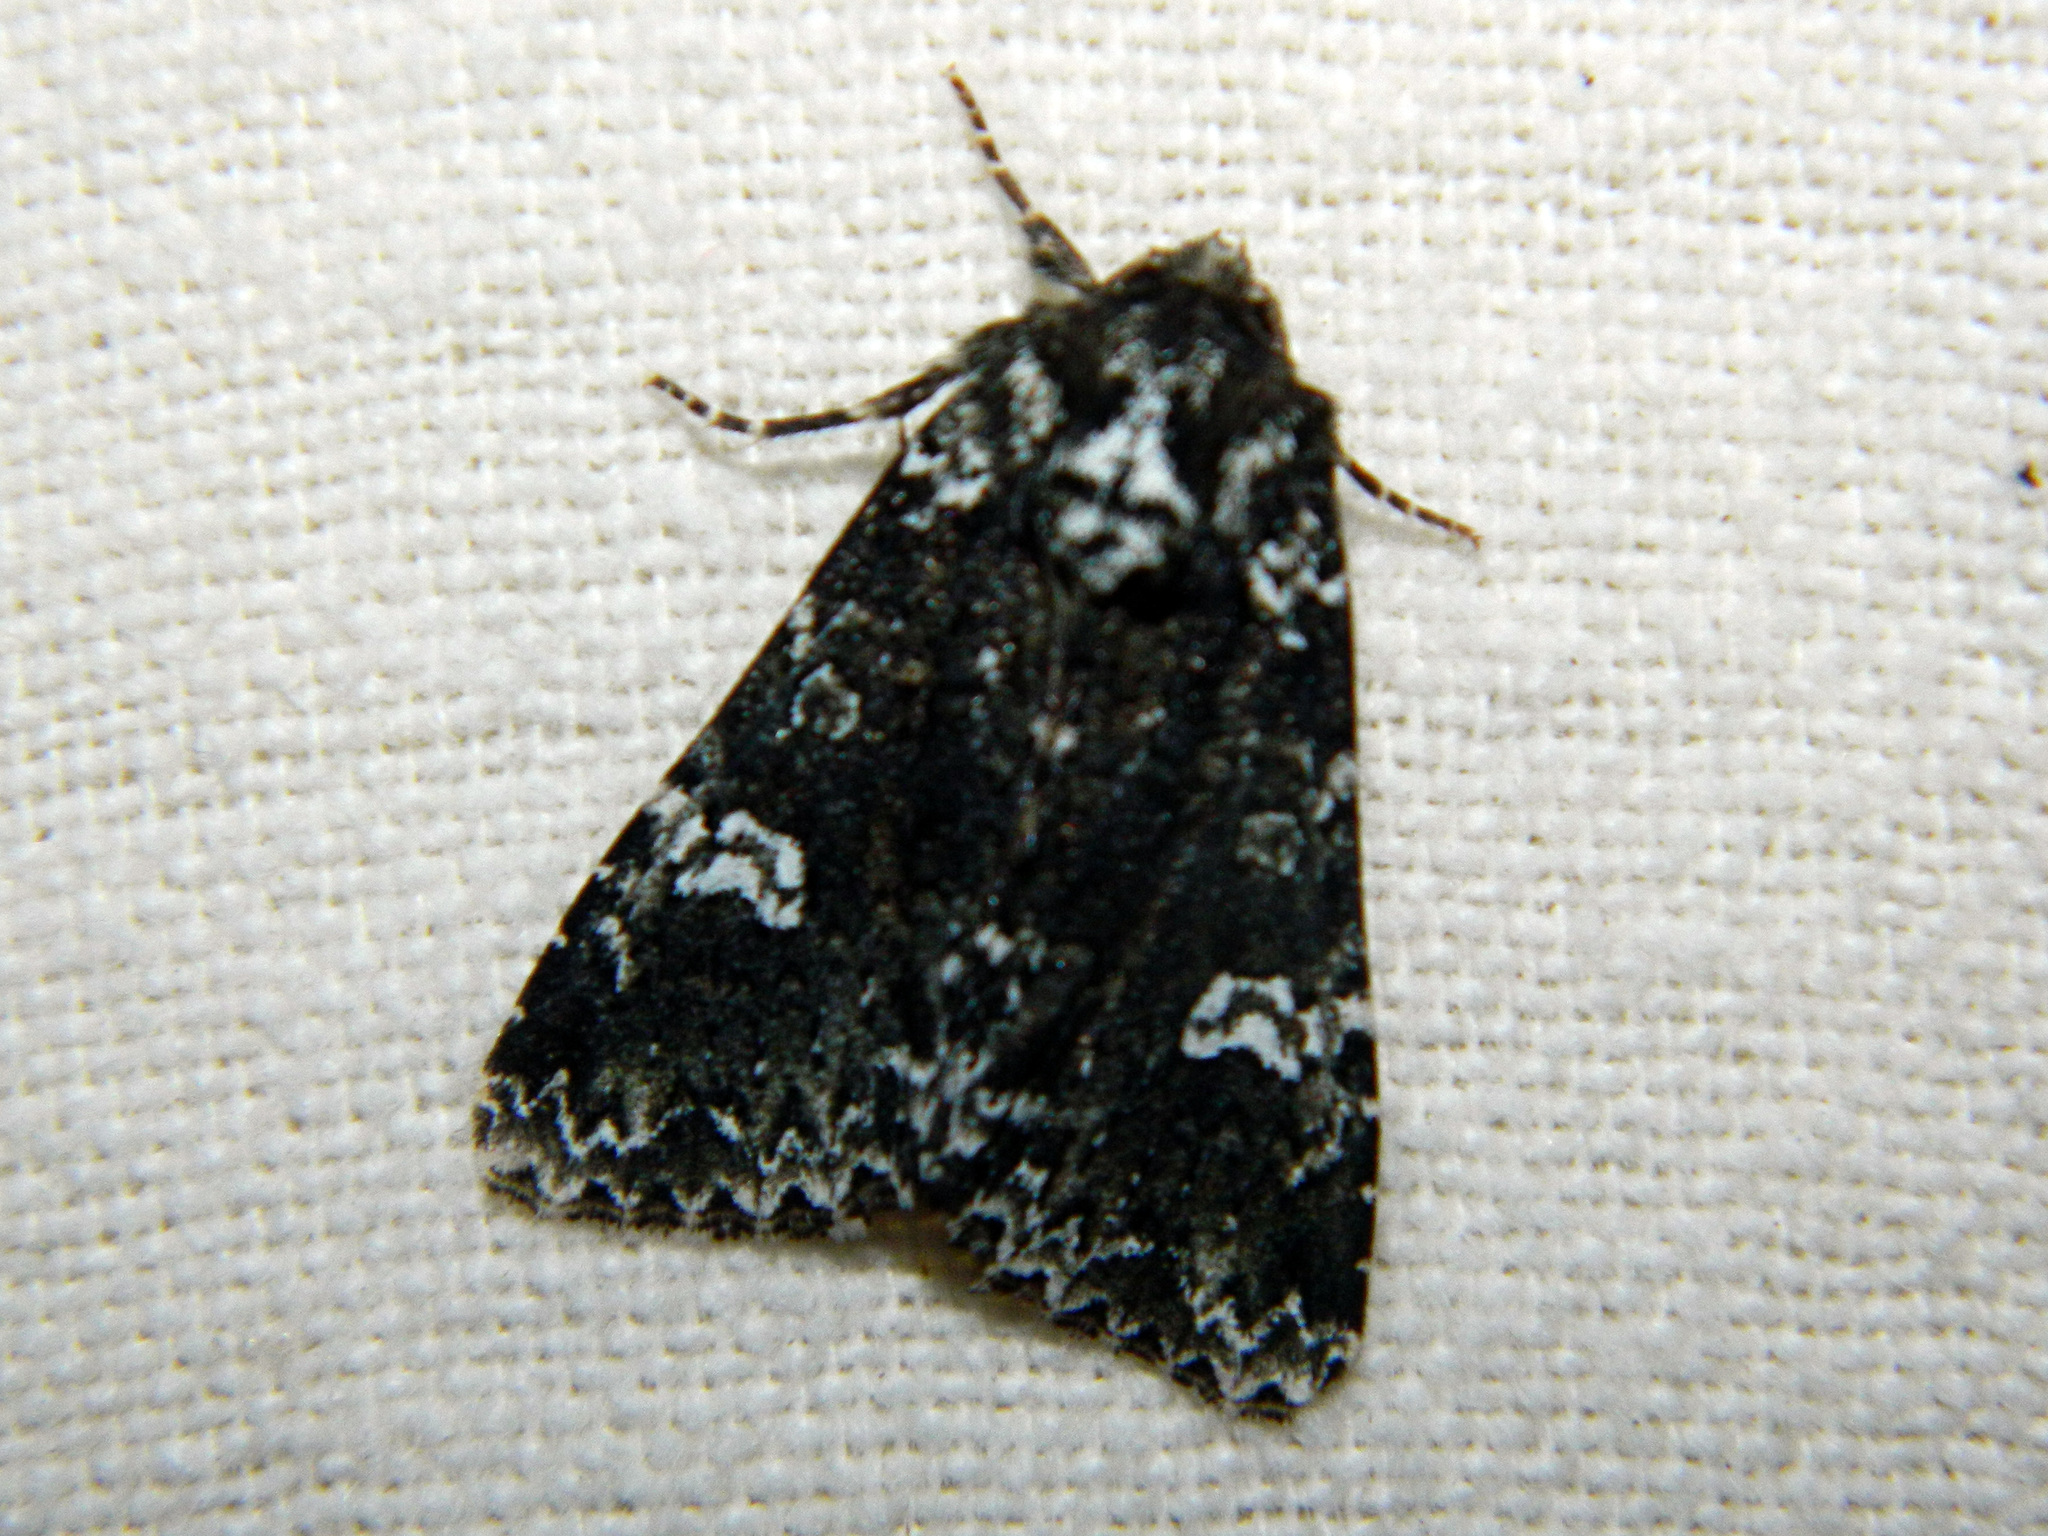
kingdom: Animalia
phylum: Arthropoda
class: Insecta
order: Lepidoptera
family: Noctuidae
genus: Melanchra
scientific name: Melanchra adjuncta
